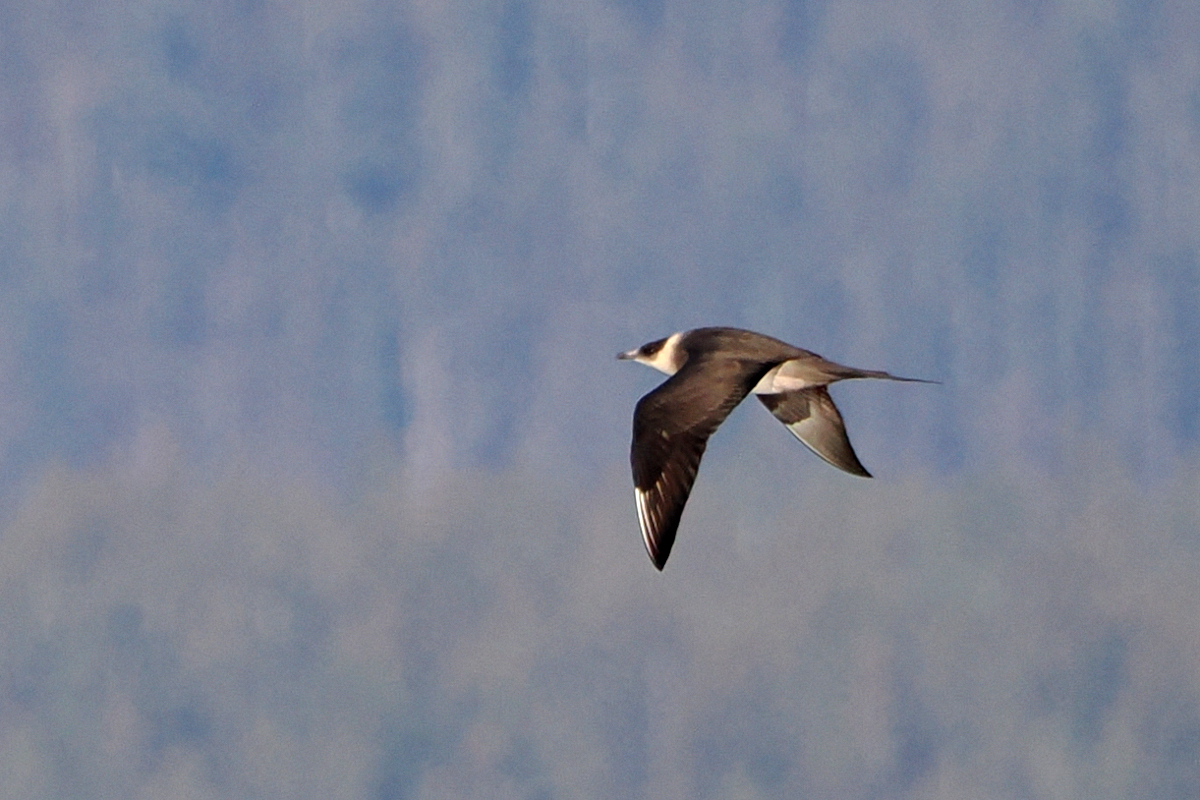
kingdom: Animalia
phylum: Chordata
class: Aves
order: Charadriiformes
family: Stercorariidae
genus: Stercorarius
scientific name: Stercorarius parasiticus
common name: Parasitic jaeger
